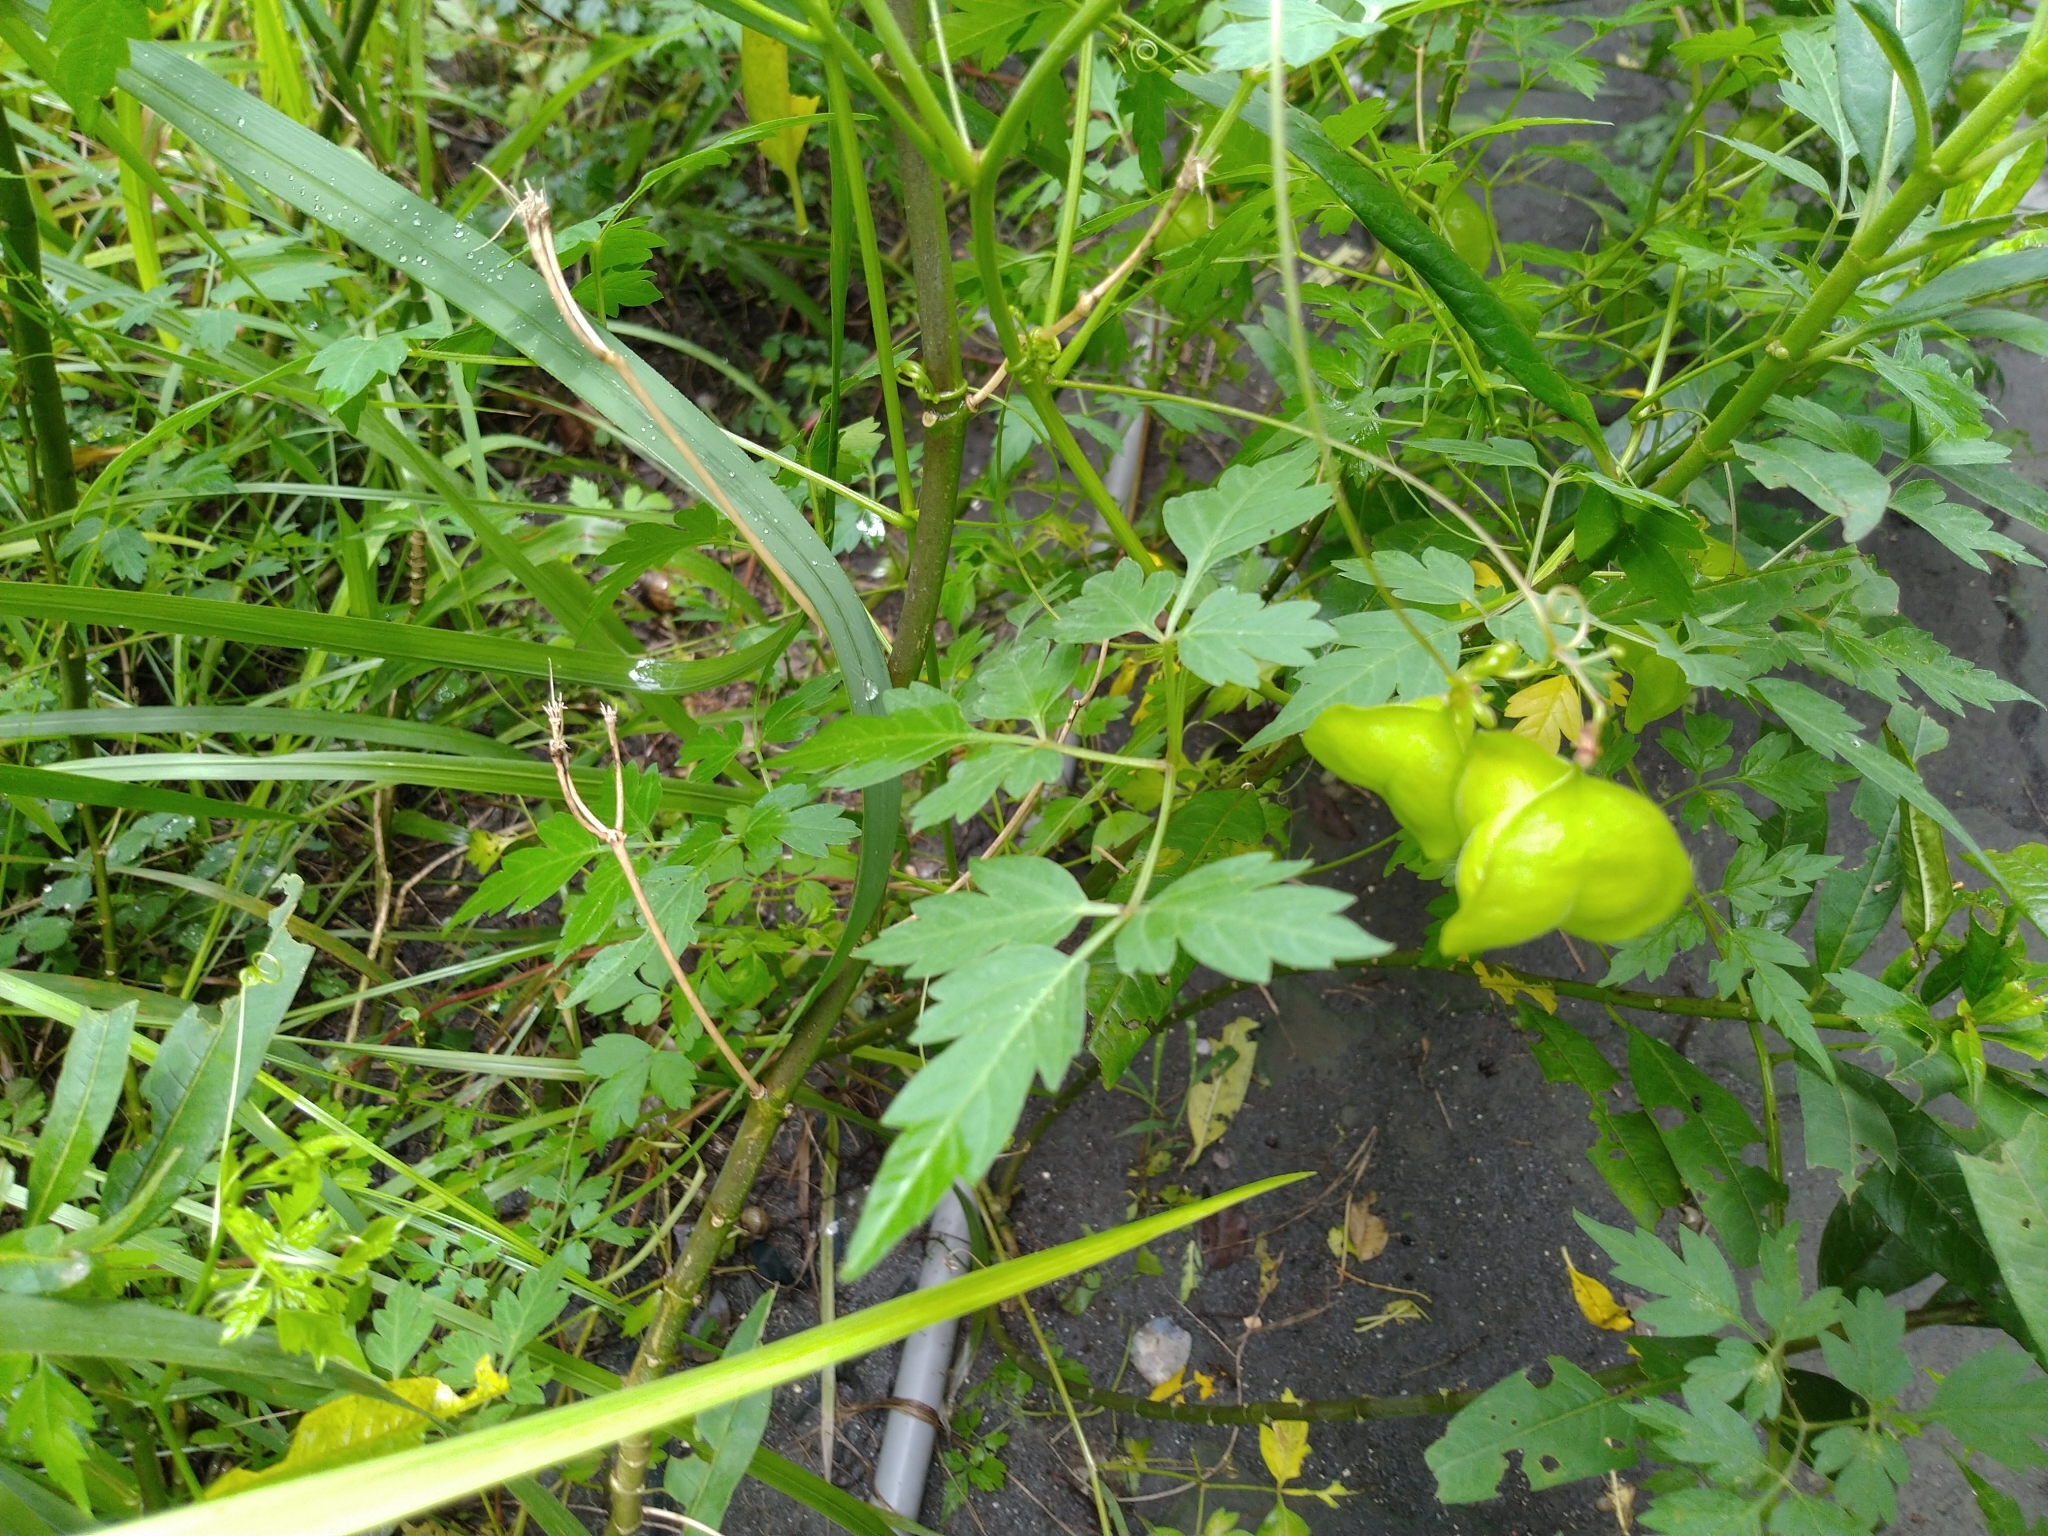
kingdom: Plantae
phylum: Tracheophyta
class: Magnoliopsida
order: Sapindales
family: Sapindaceae
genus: Cardiospermum
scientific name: Cardiospermum halicacabum
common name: Balloon vine
